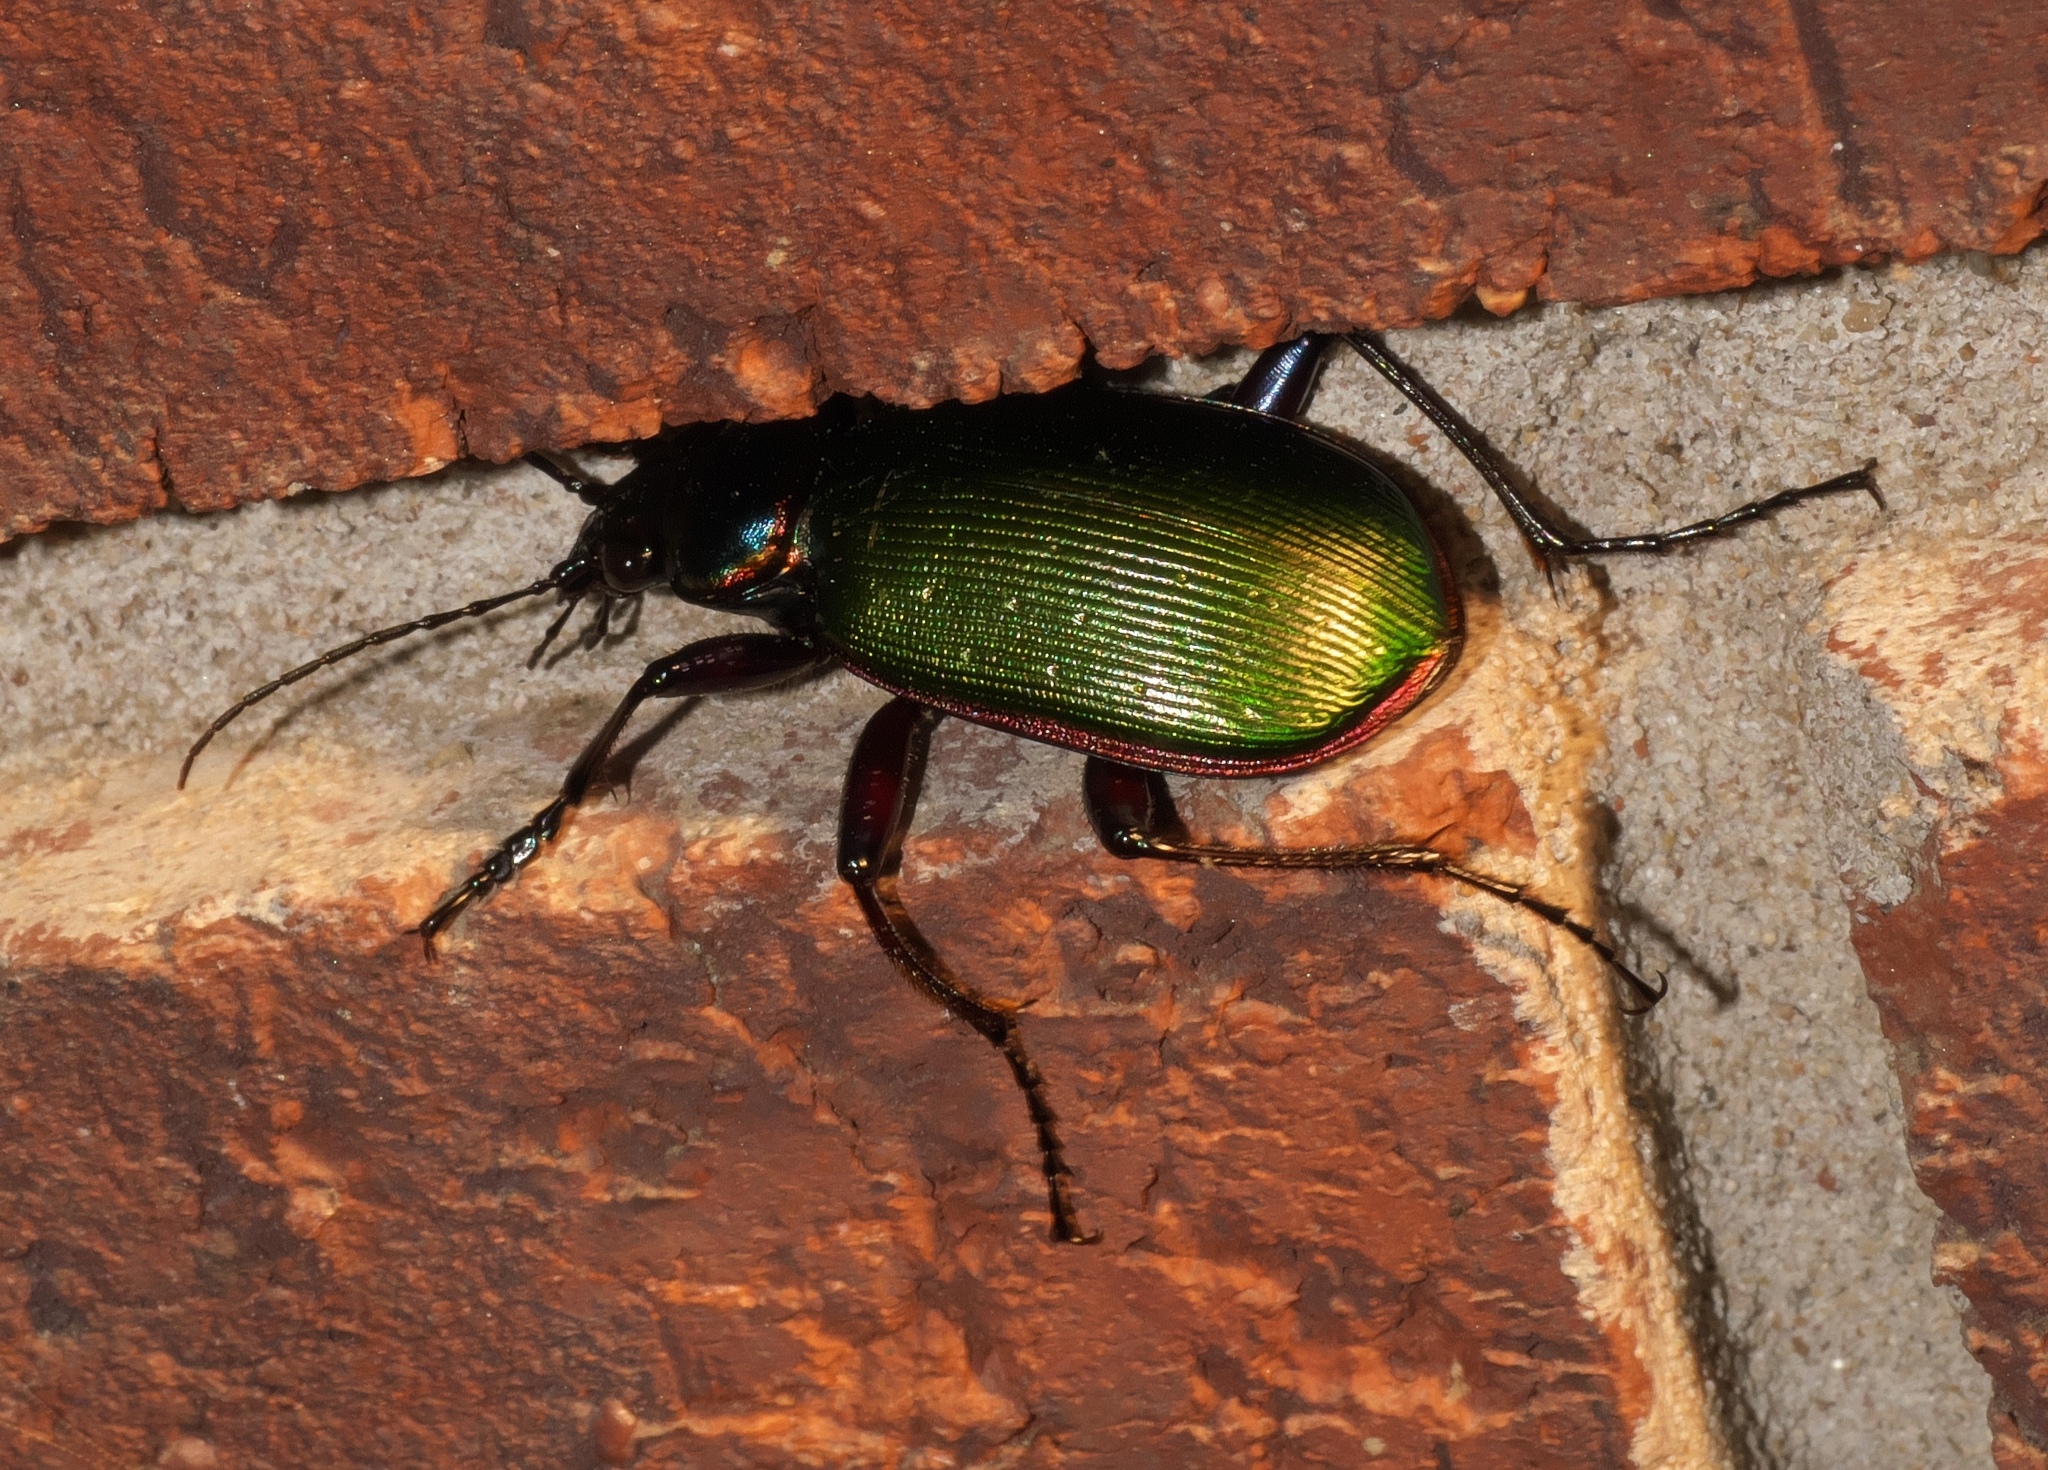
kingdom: Animalia
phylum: Arthropoda
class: Insecta
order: Coleoptera
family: Carabidae
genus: Calosoma
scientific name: Calosoma scrutator
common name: Fiery searcher beetle
